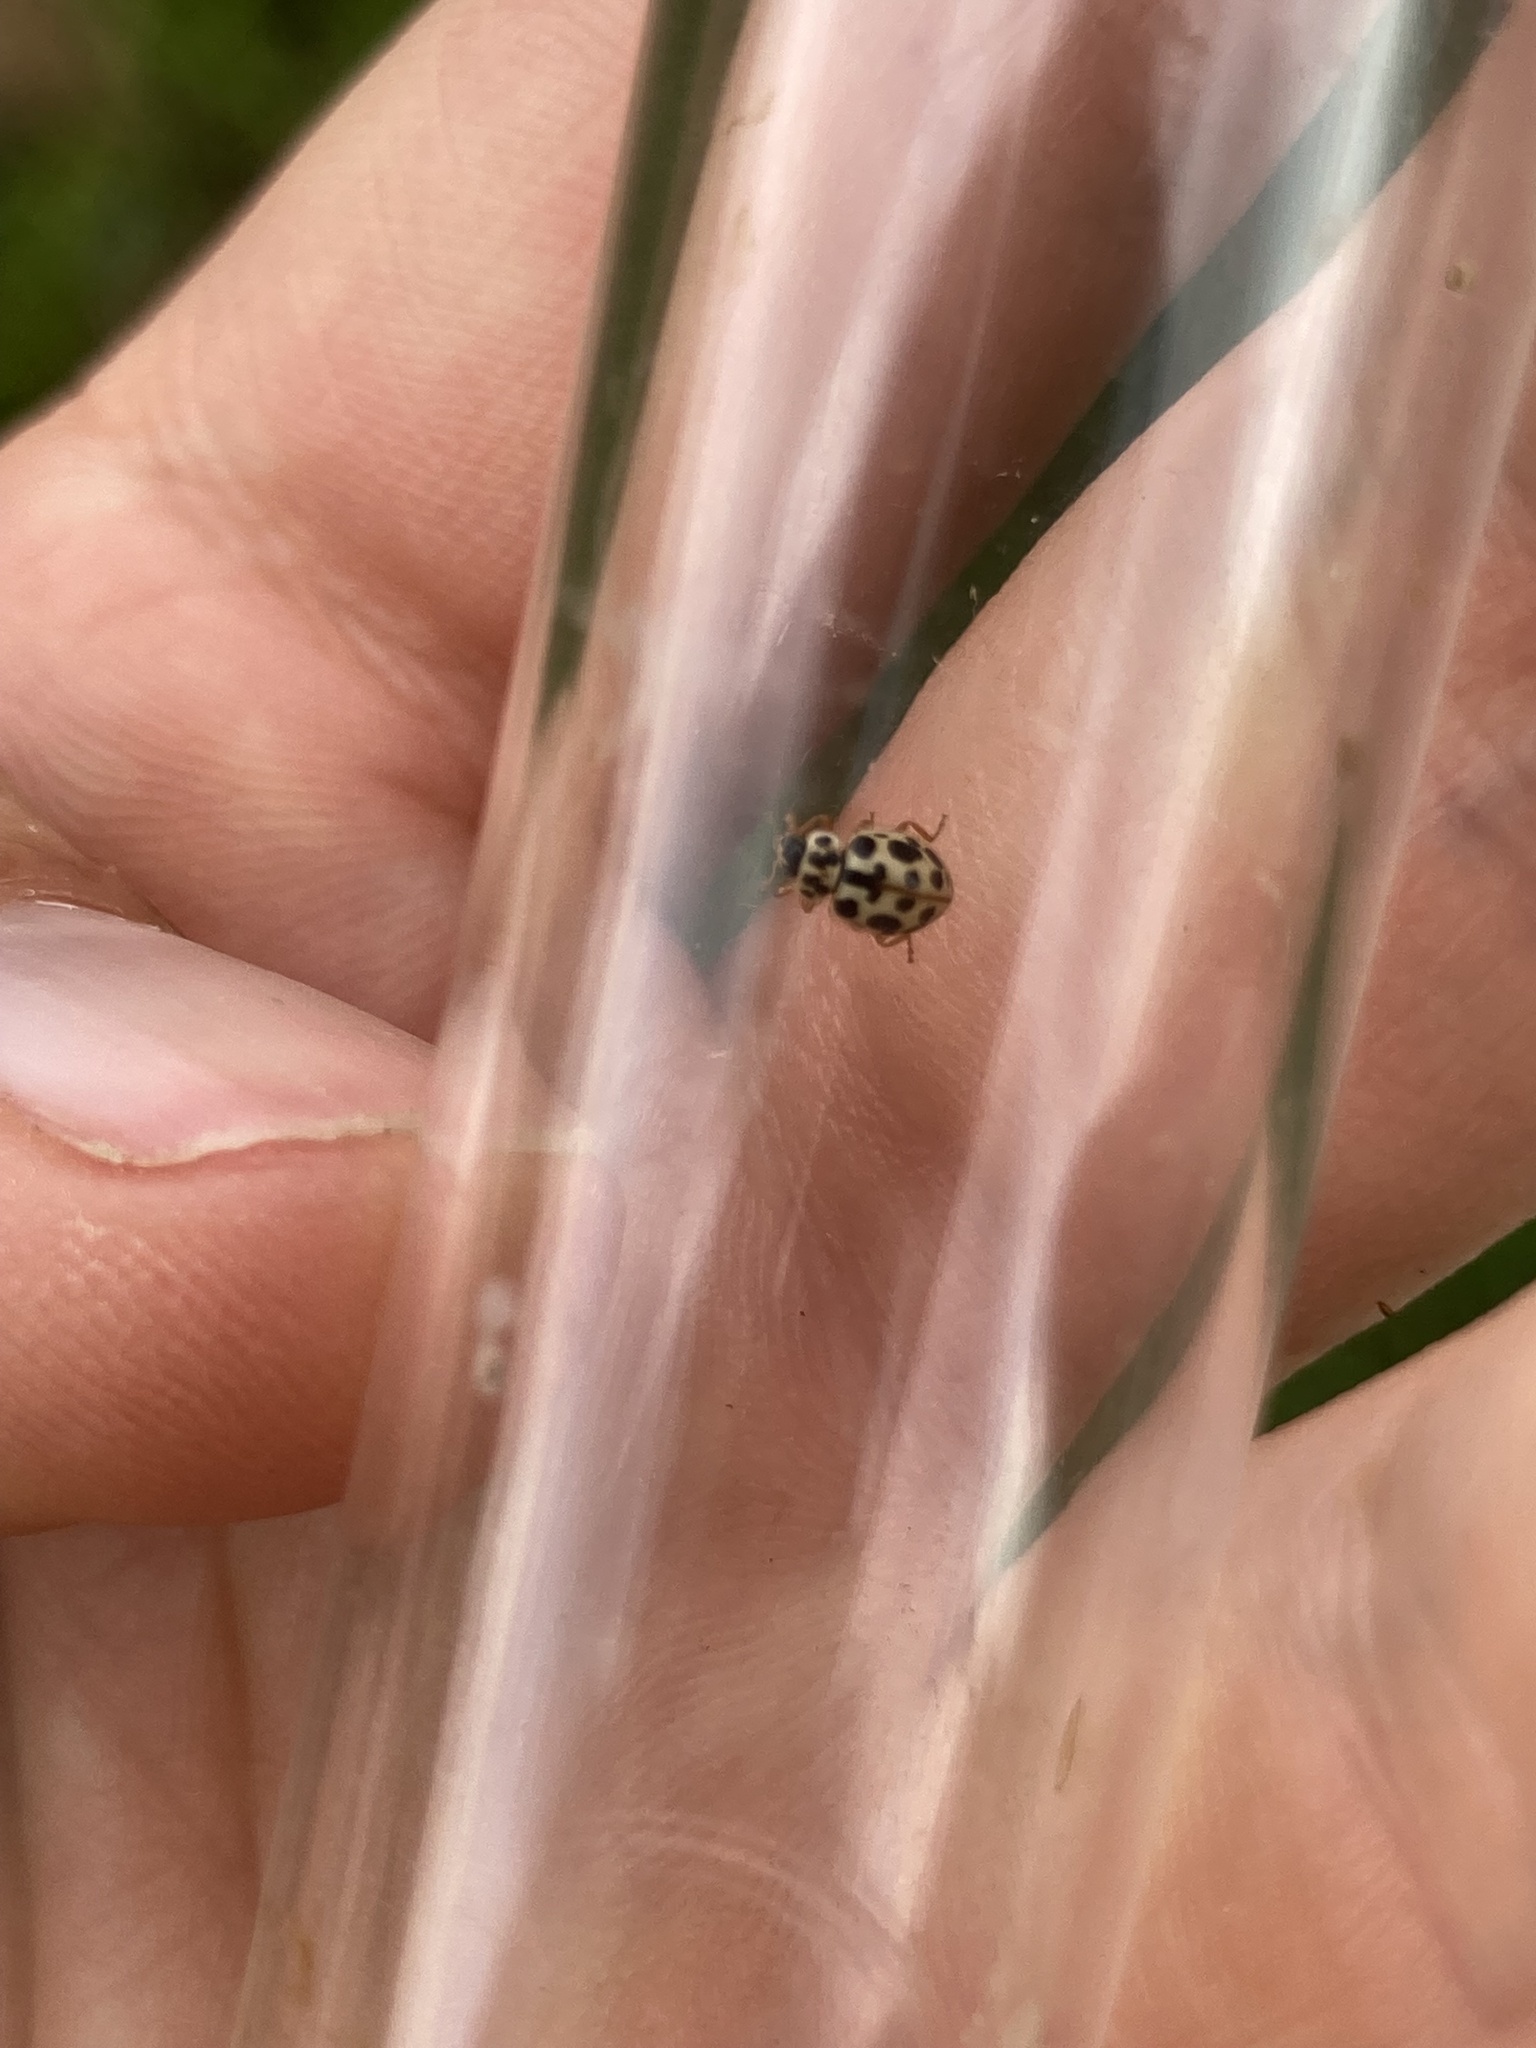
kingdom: Animalia
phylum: Arthropoda
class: Insecta
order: Coleoptera
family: Coccinellidae
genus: Anisosticta
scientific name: Anisosticta bitriangularis
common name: Marsh lady beetle
